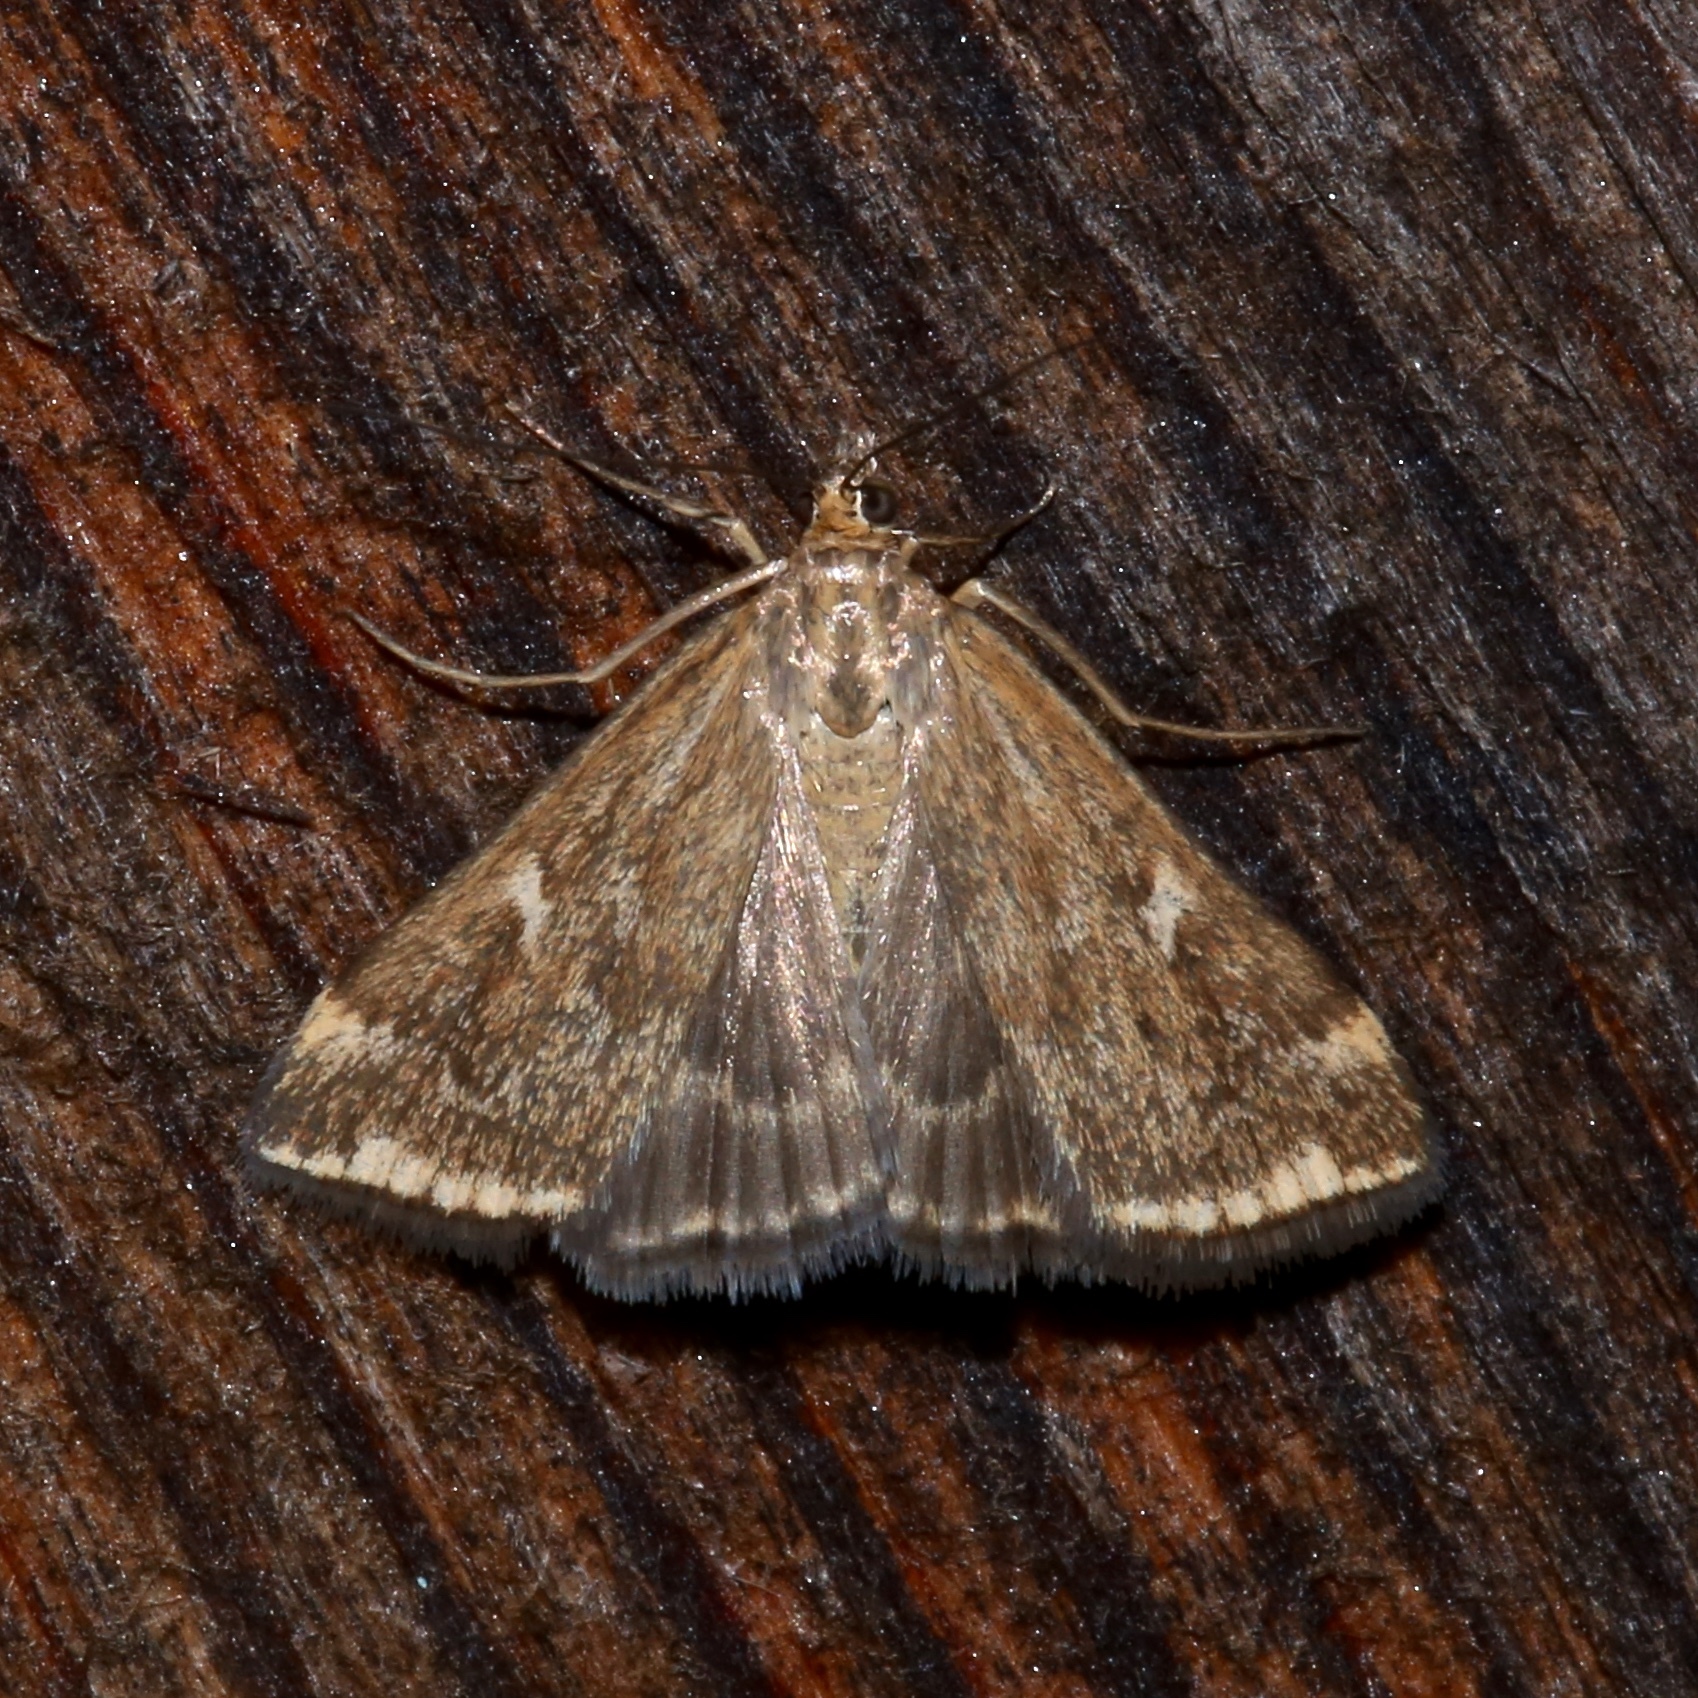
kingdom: Animalia
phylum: Arthropoda
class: Insecta
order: Lepidoptera
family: Crambidae
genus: Loxostege
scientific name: Loxostege
